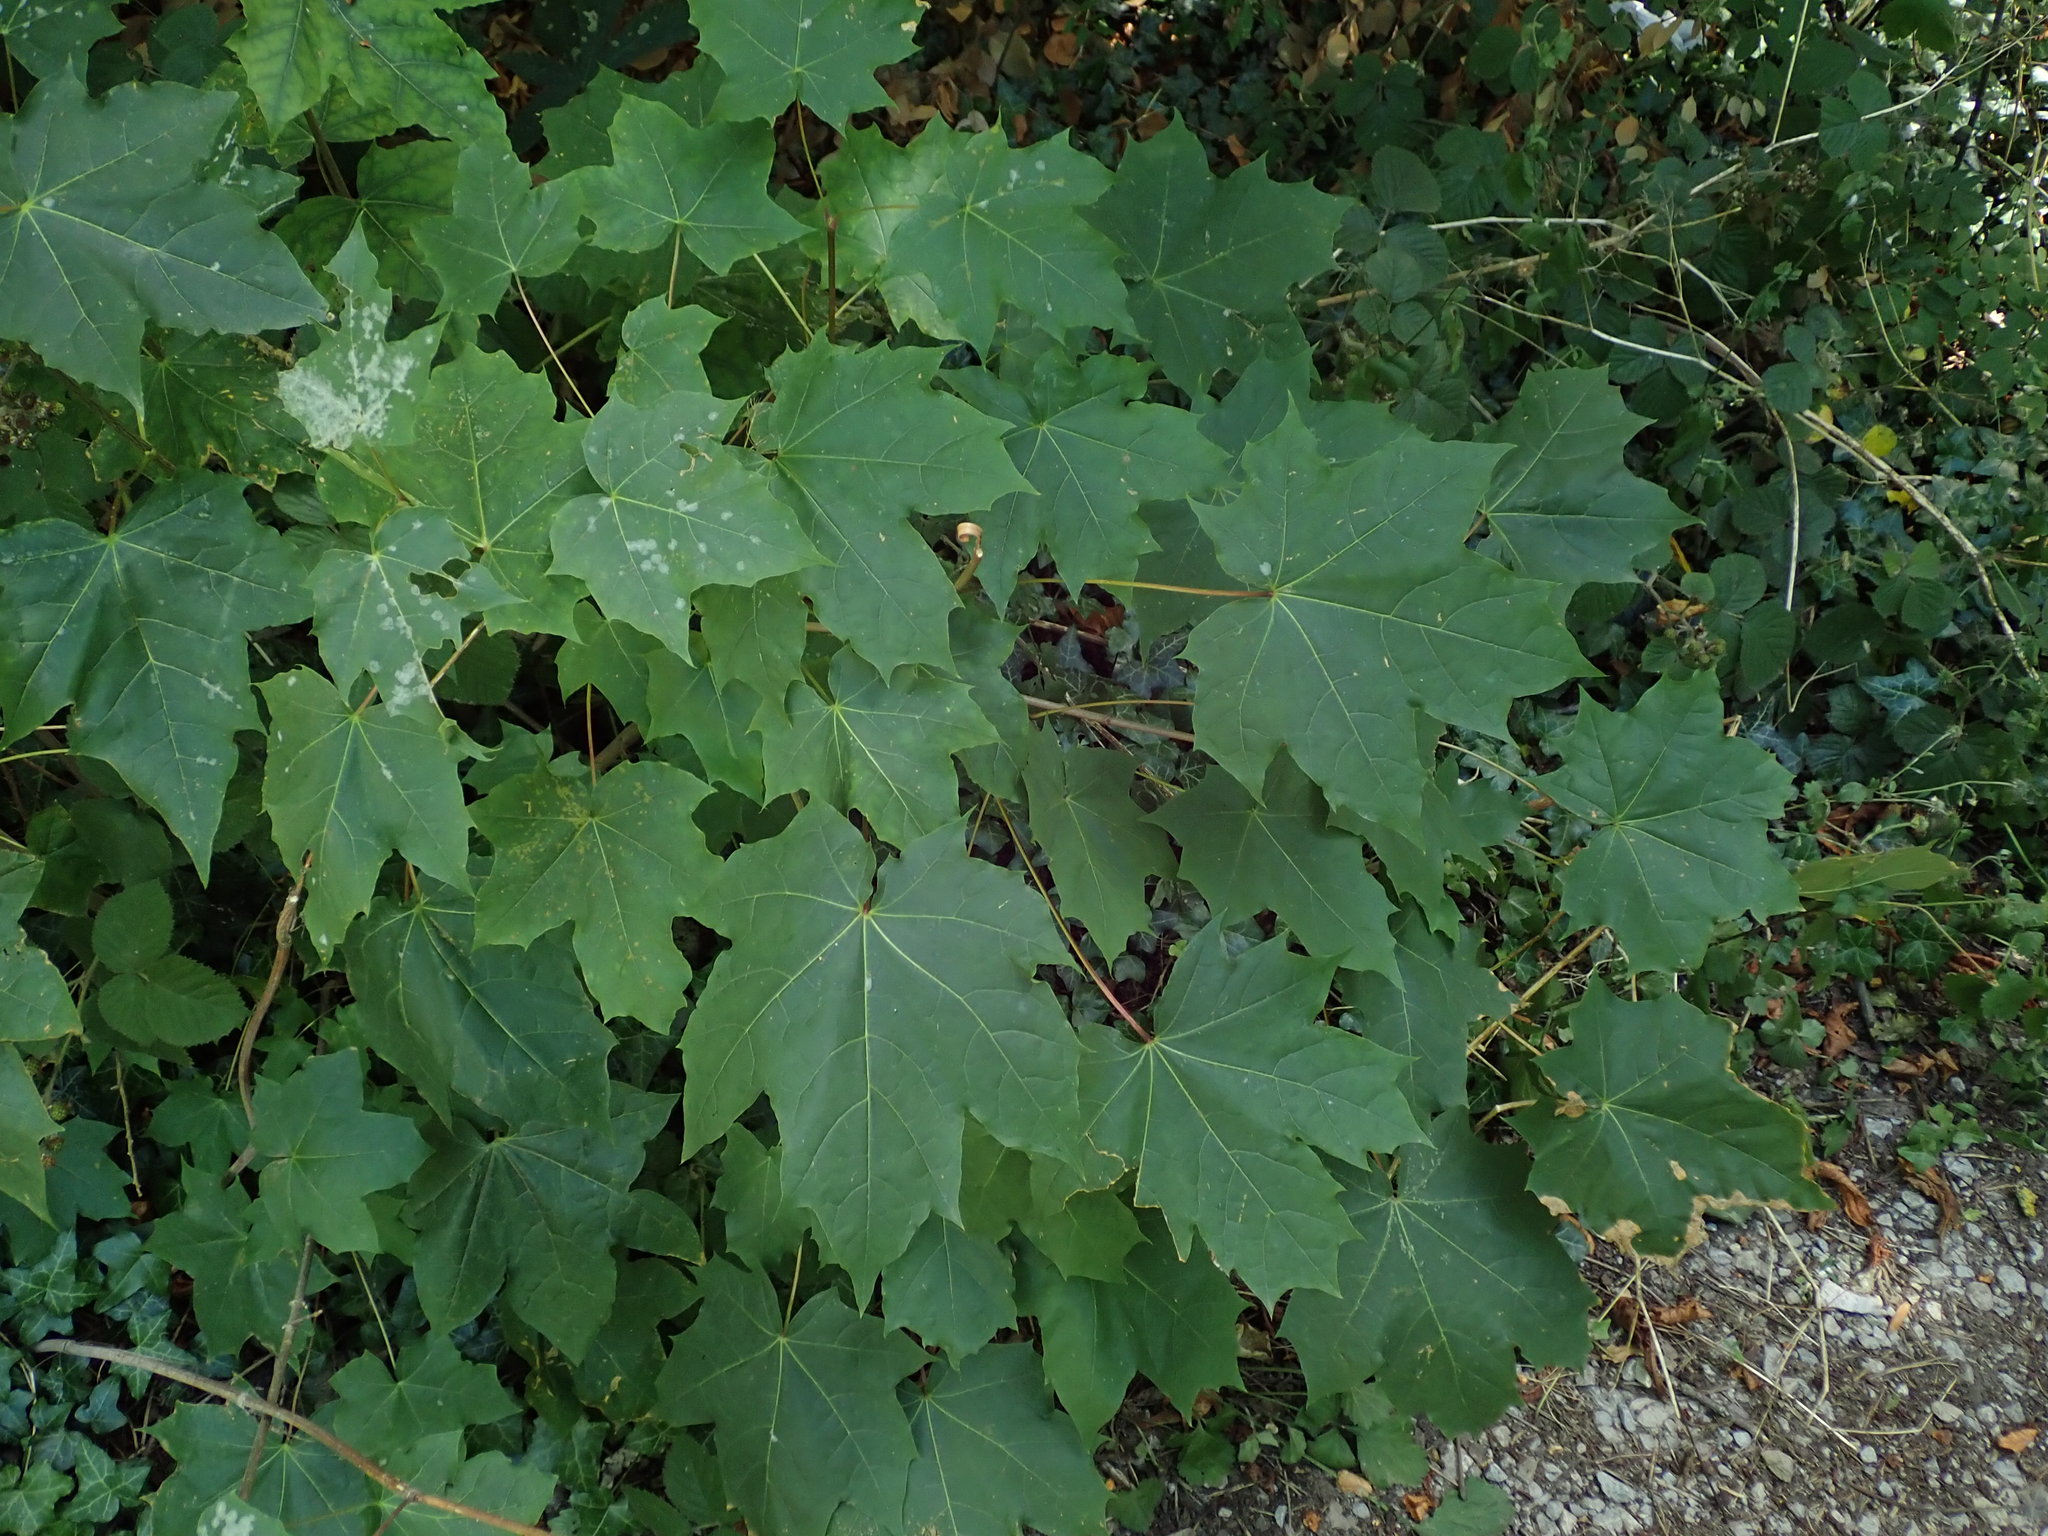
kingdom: Plantae
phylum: Tracheophyta
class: Magnoliopsida
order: Sapindales
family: Sapindaceae
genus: Acer
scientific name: Acer platanoides
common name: Norway maple
